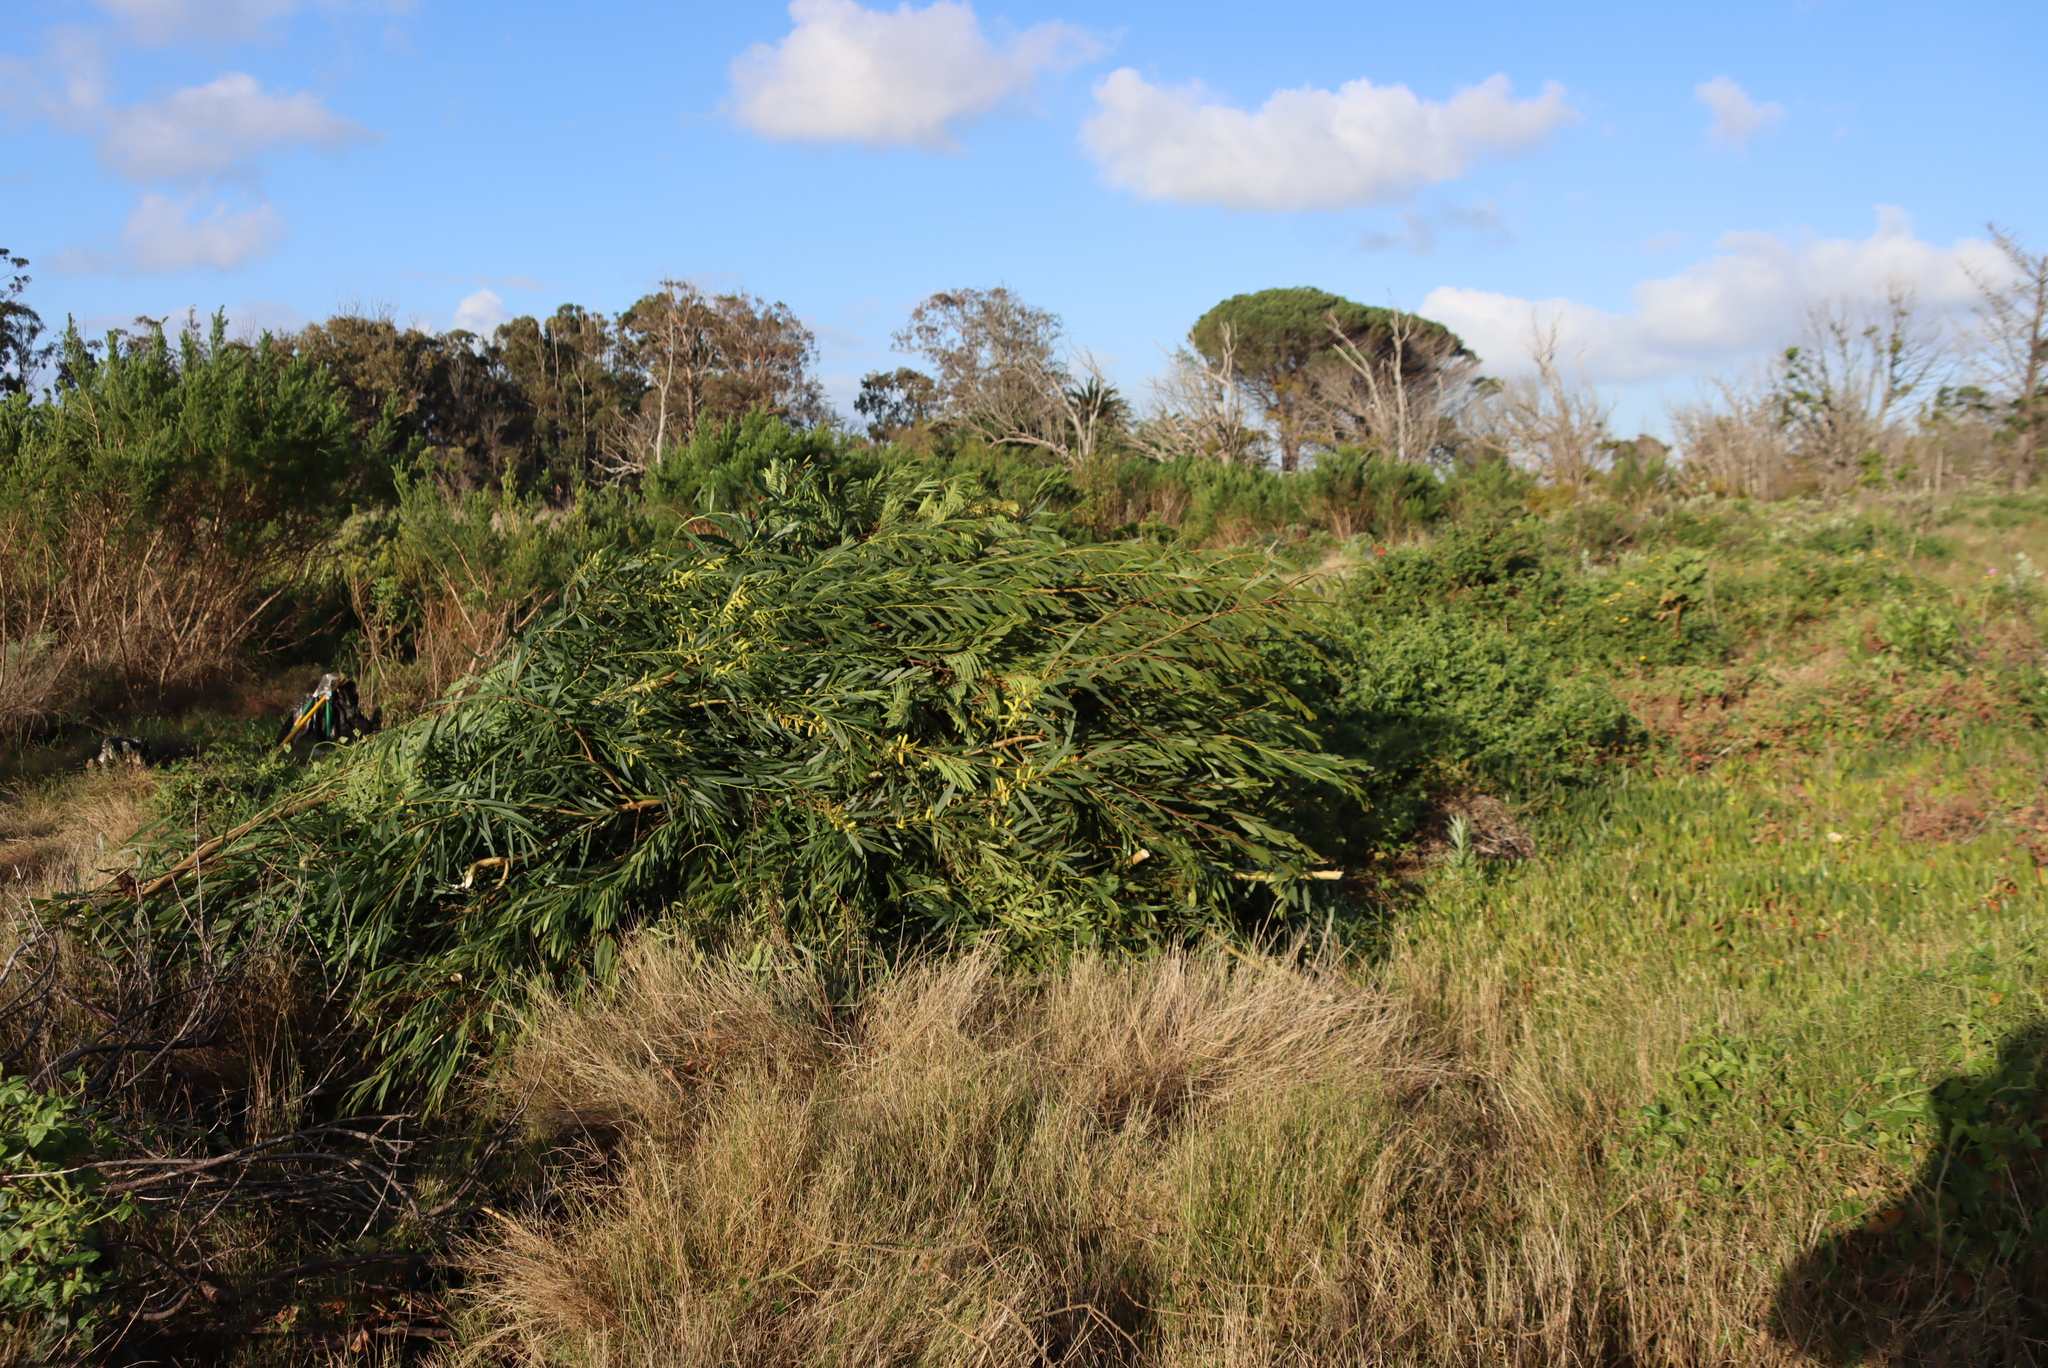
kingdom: Plantae
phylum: Tracheophyta
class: Magnoliopsida
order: Fabales
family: Fabaceae
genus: Acacia
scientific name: Acacia longifolia
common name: Sydney golden wattle
